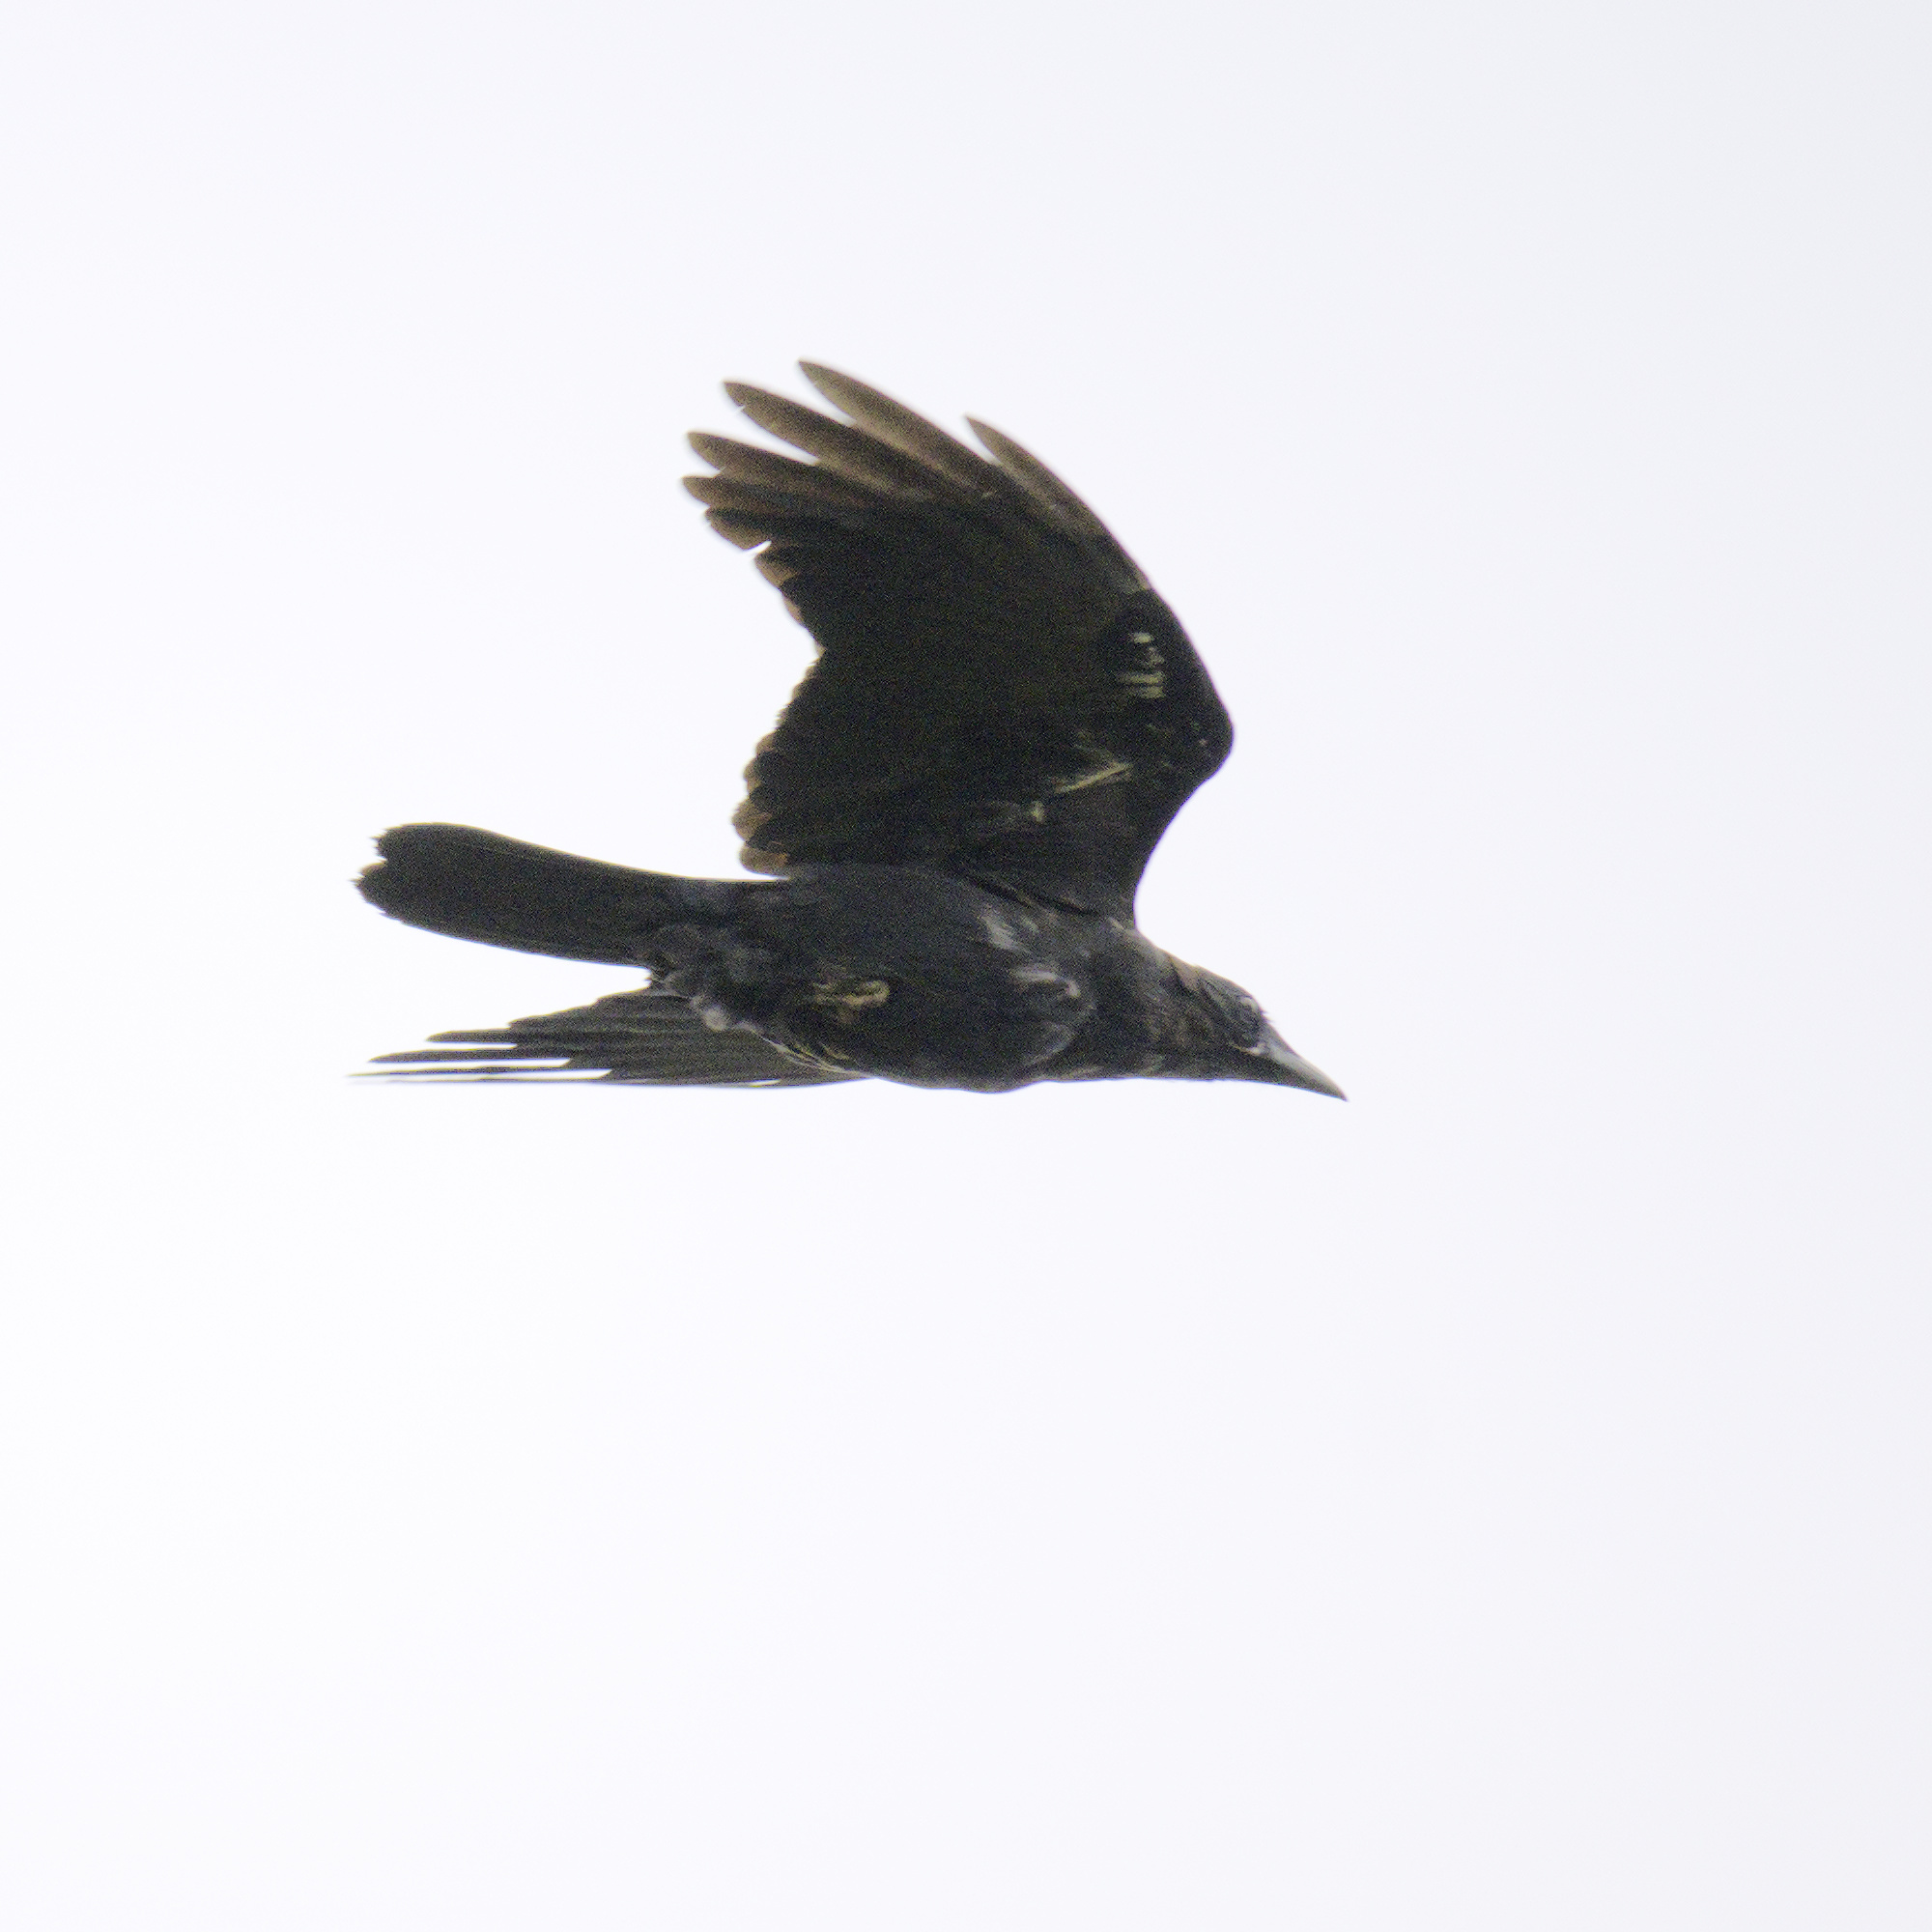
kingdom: Animalia
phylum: Chordata
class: Aves
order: Passeriformes
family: Corvidae
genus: Corvus
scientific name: Corvus mellori
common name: Little raven
